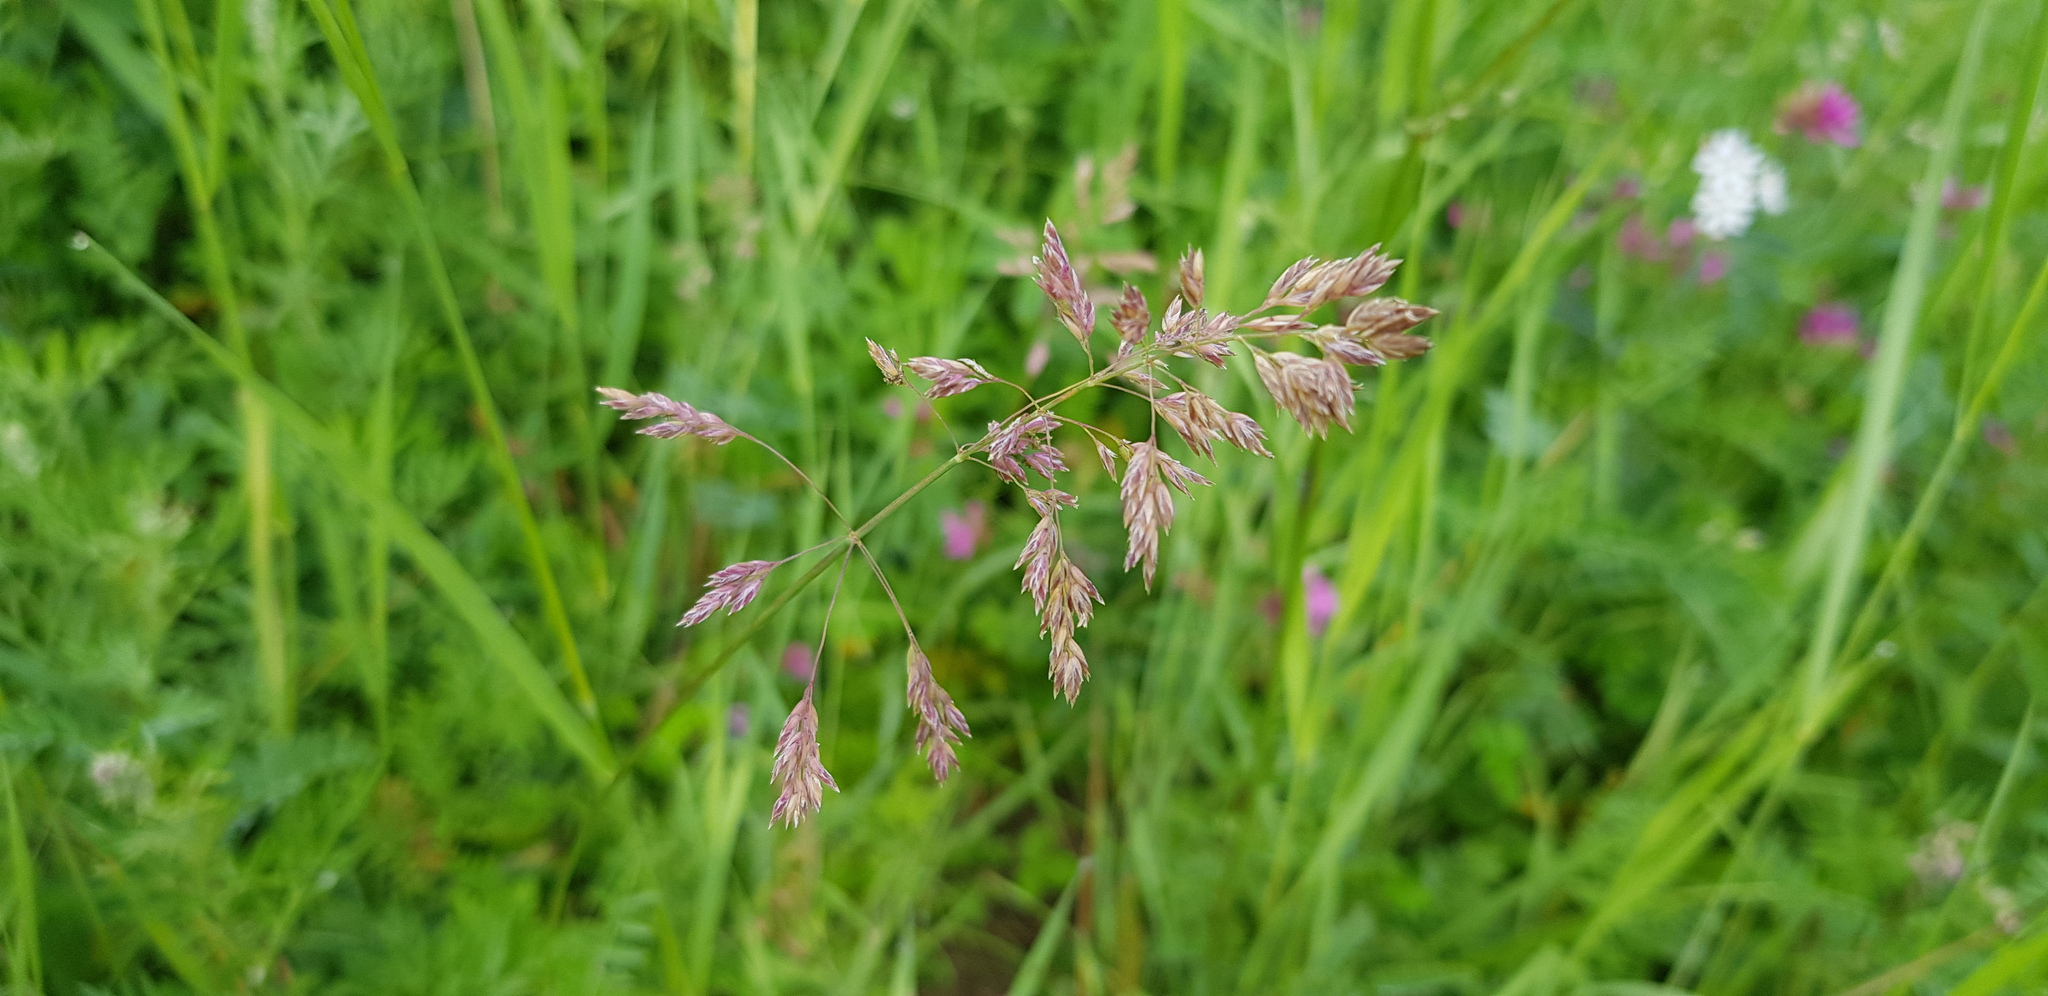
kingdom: Plantae
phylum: Tracheophyta
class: Liliopsida
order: Poales
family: Poaceae
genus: Poa
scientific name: Poa pratensis
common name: Kentucky bluegrass
